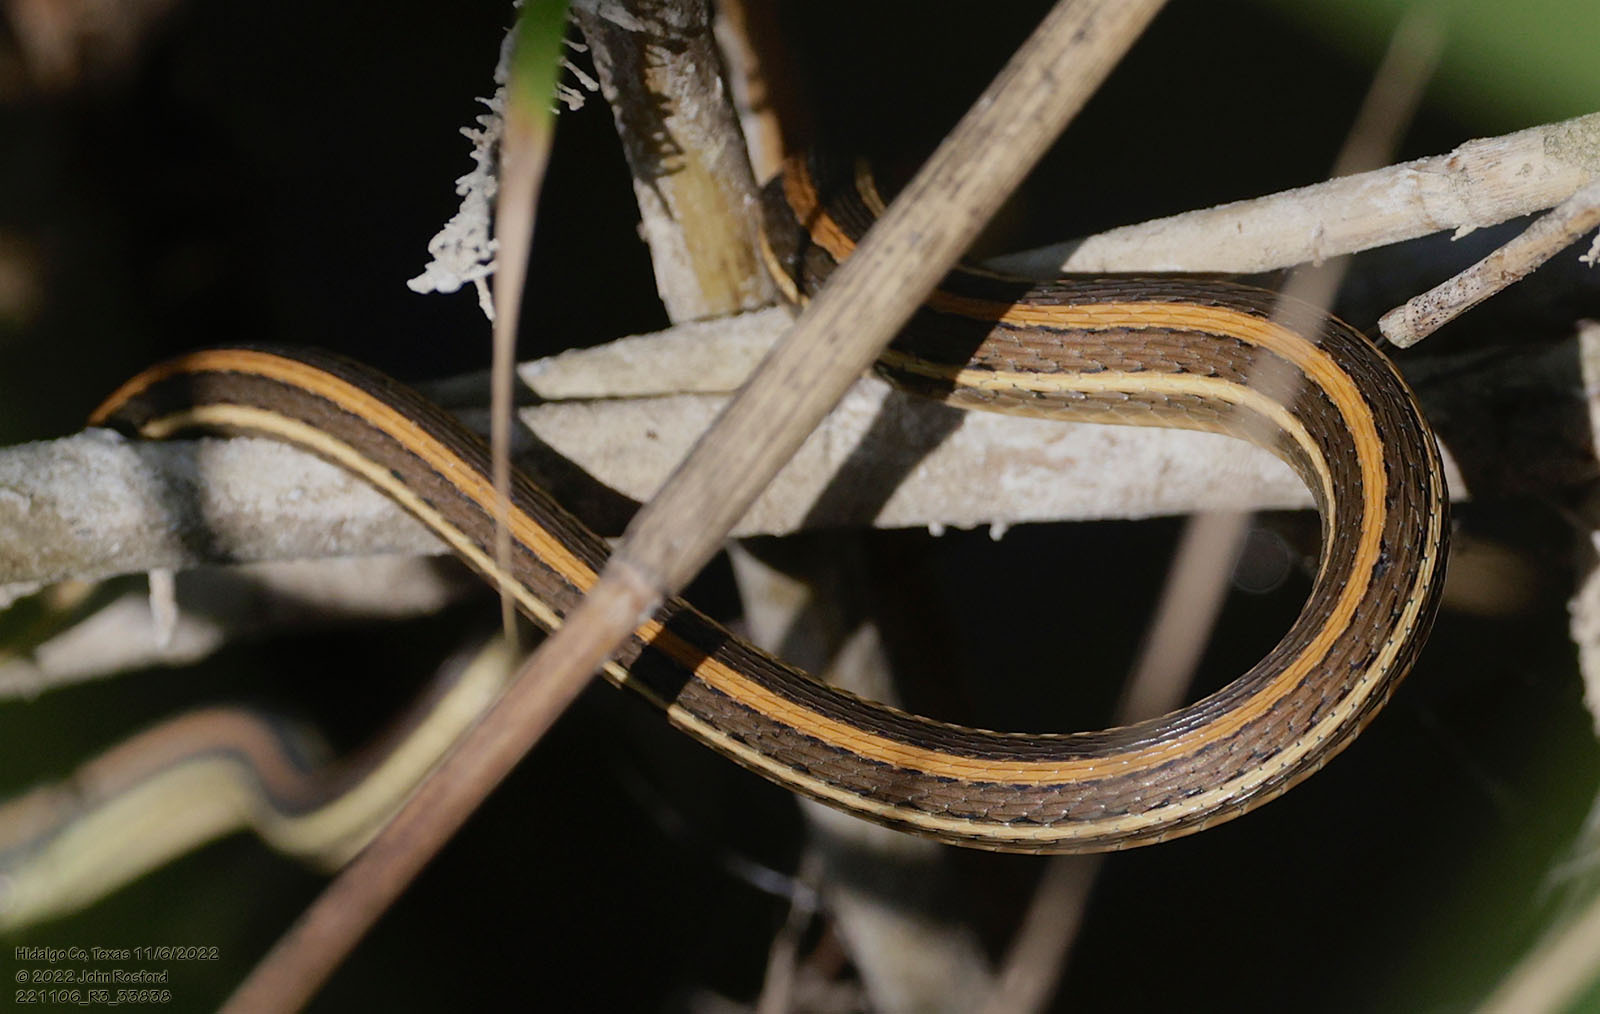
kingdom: Animalia
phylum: Chordata
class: Squamata
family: Colubridae
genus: Thamnophis
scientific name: Thamnophis proximus
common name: Western ribbon snake
